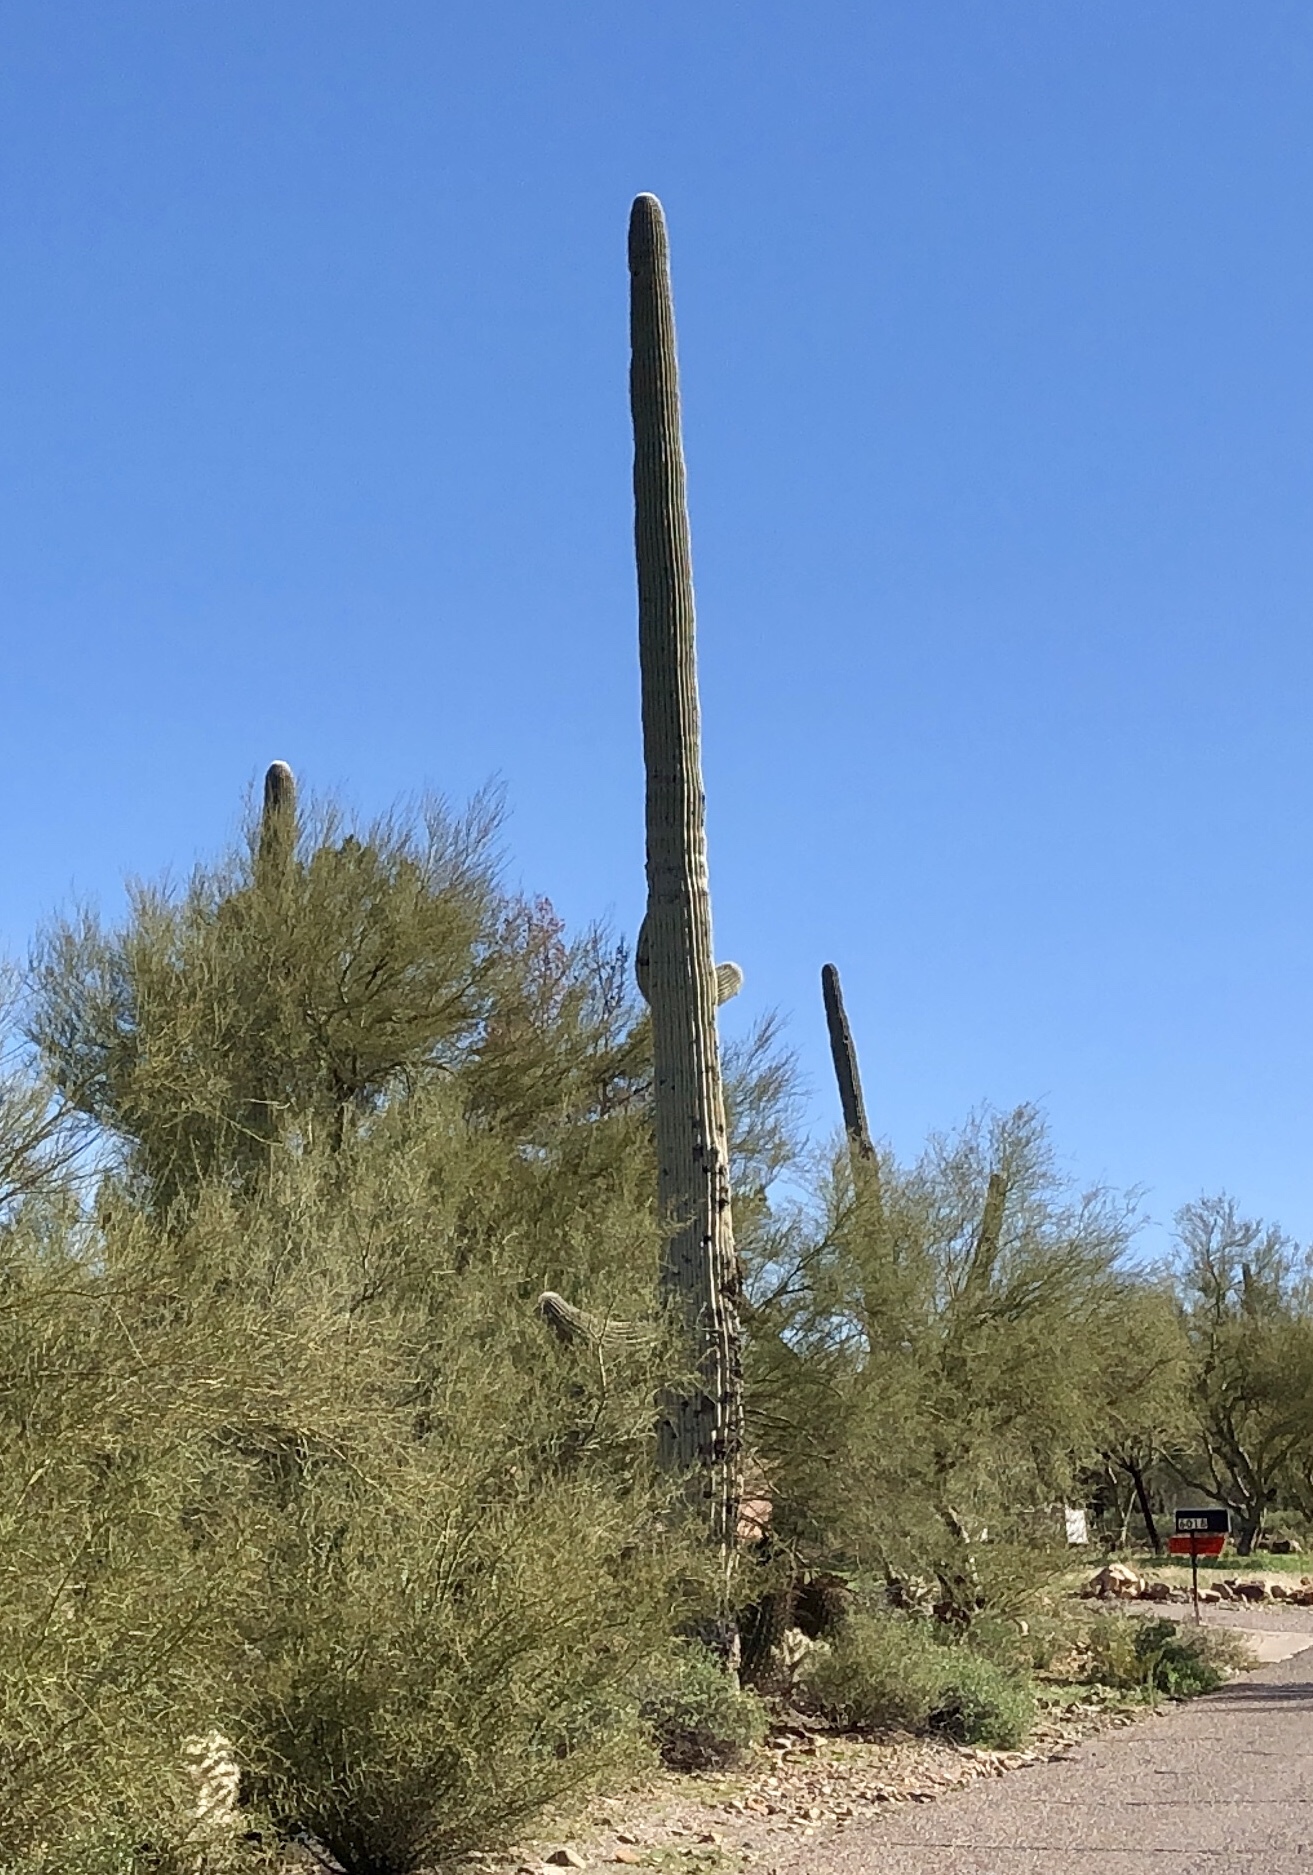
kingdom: Plantae
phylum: Tracheophyta
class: Magnoliopsida
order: Caryophyllales
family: Cactaceae
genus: Carnegiea
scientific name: Carnegiea gigantea
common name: Saguaro
